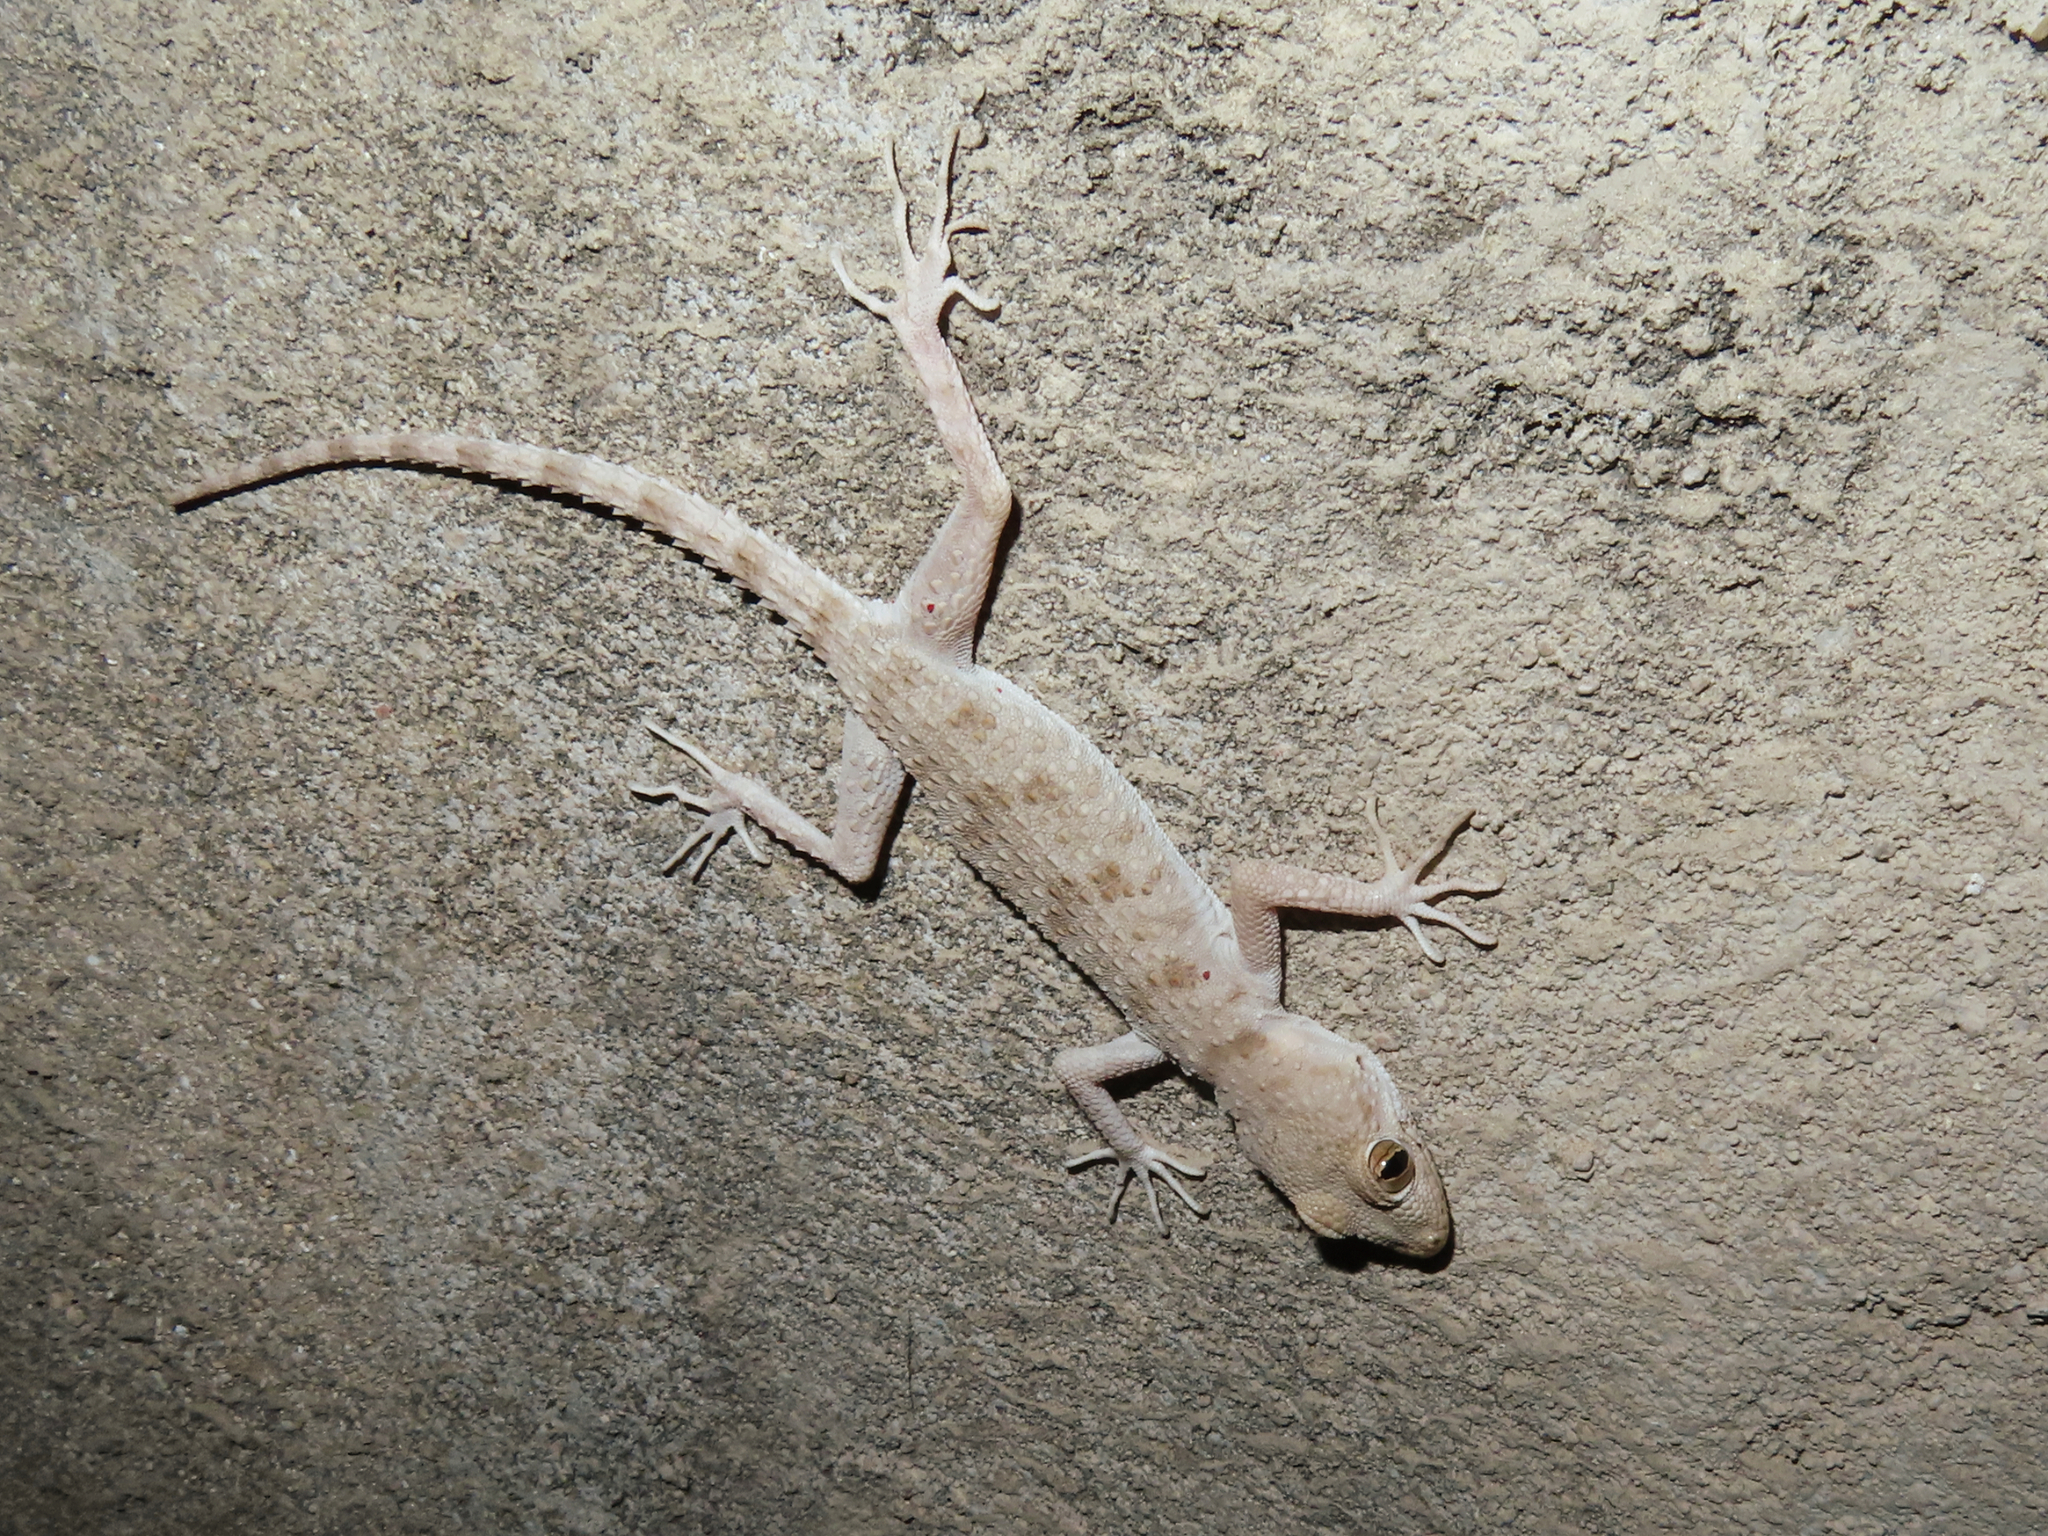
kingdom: Animalia
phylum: Chordata
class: Squamata
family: Gekkonidae
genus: Tenuidactylus
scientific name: Tenuidactylus caspius
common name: Caspian bent-toed gecko
